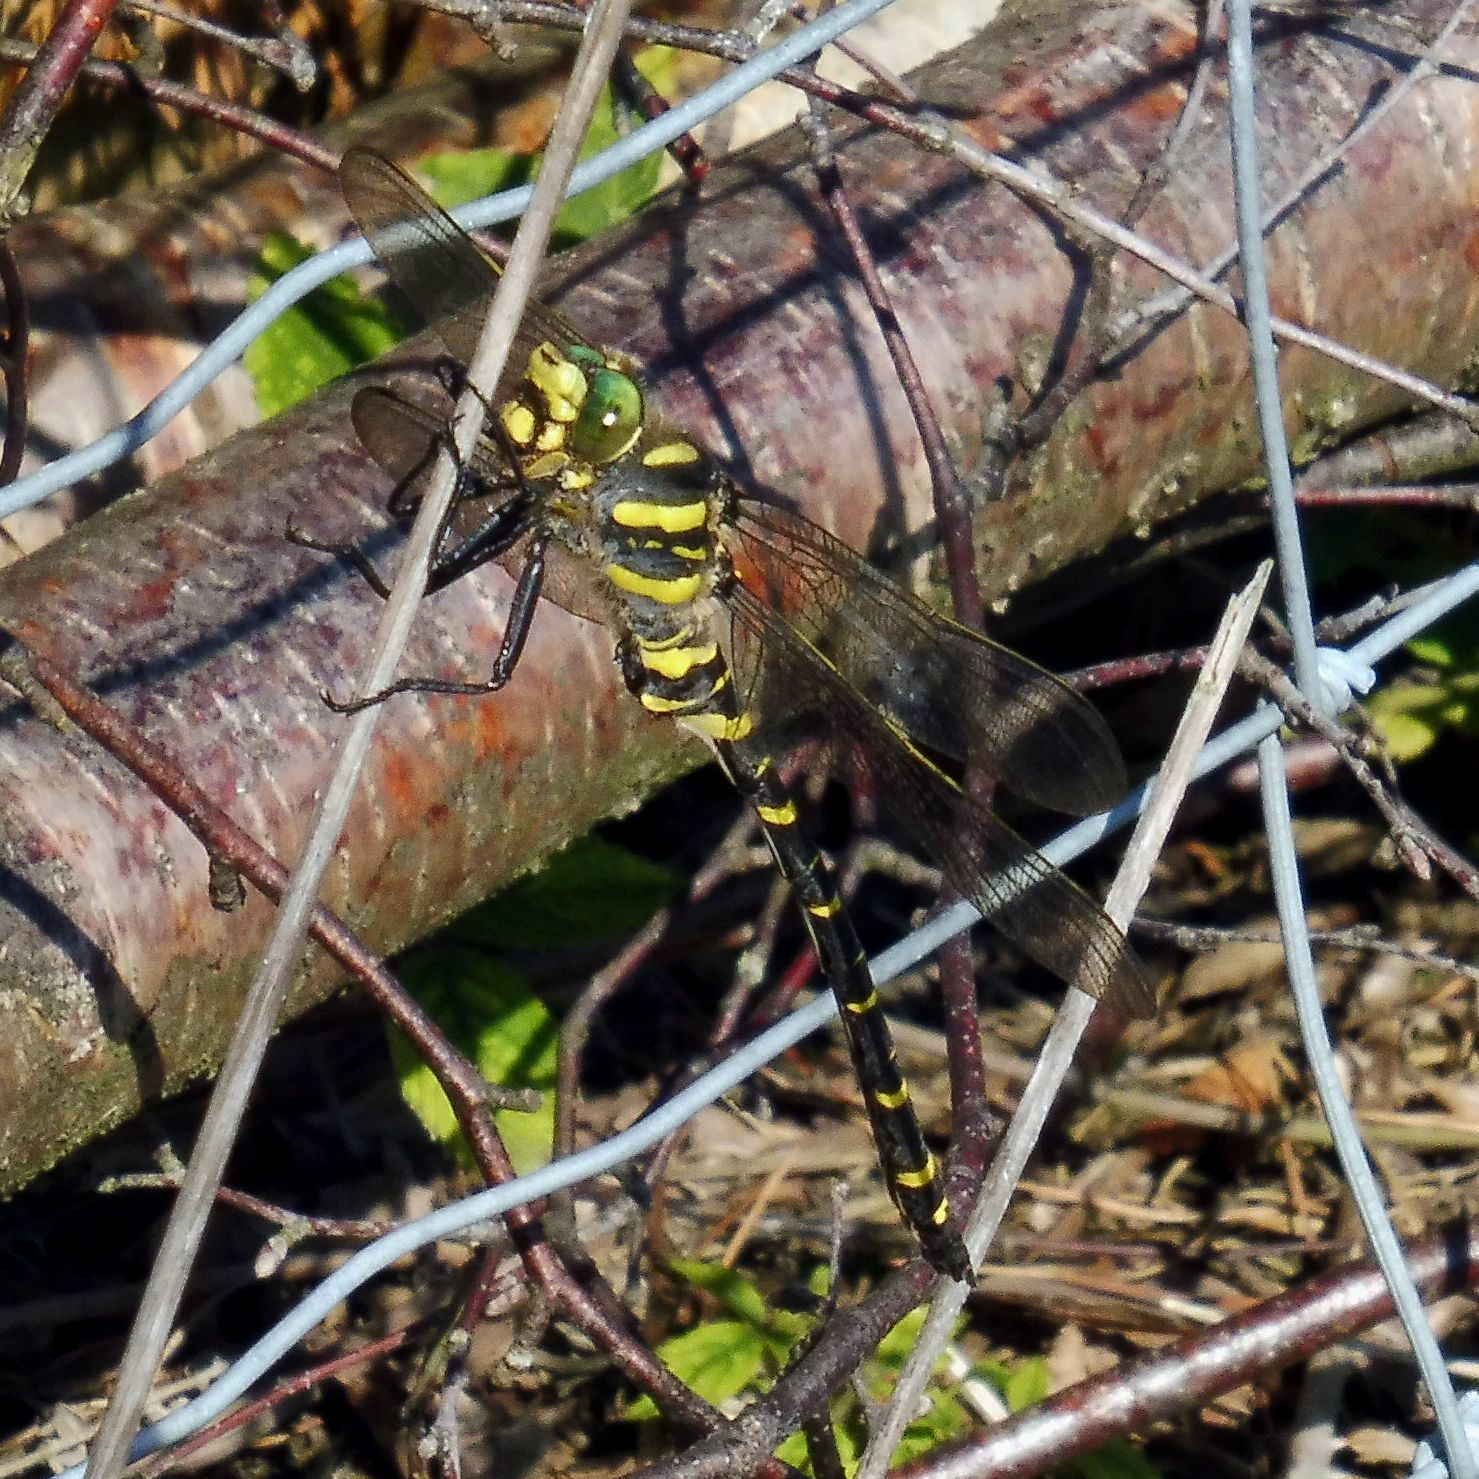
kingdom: Animalia
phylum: Arthropoda
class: Insecta
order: Odonata
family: Cordulegastridae
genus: Cordulegaster
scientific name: Cordulegaster boltonii
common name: Golden-ringed dragonfly
